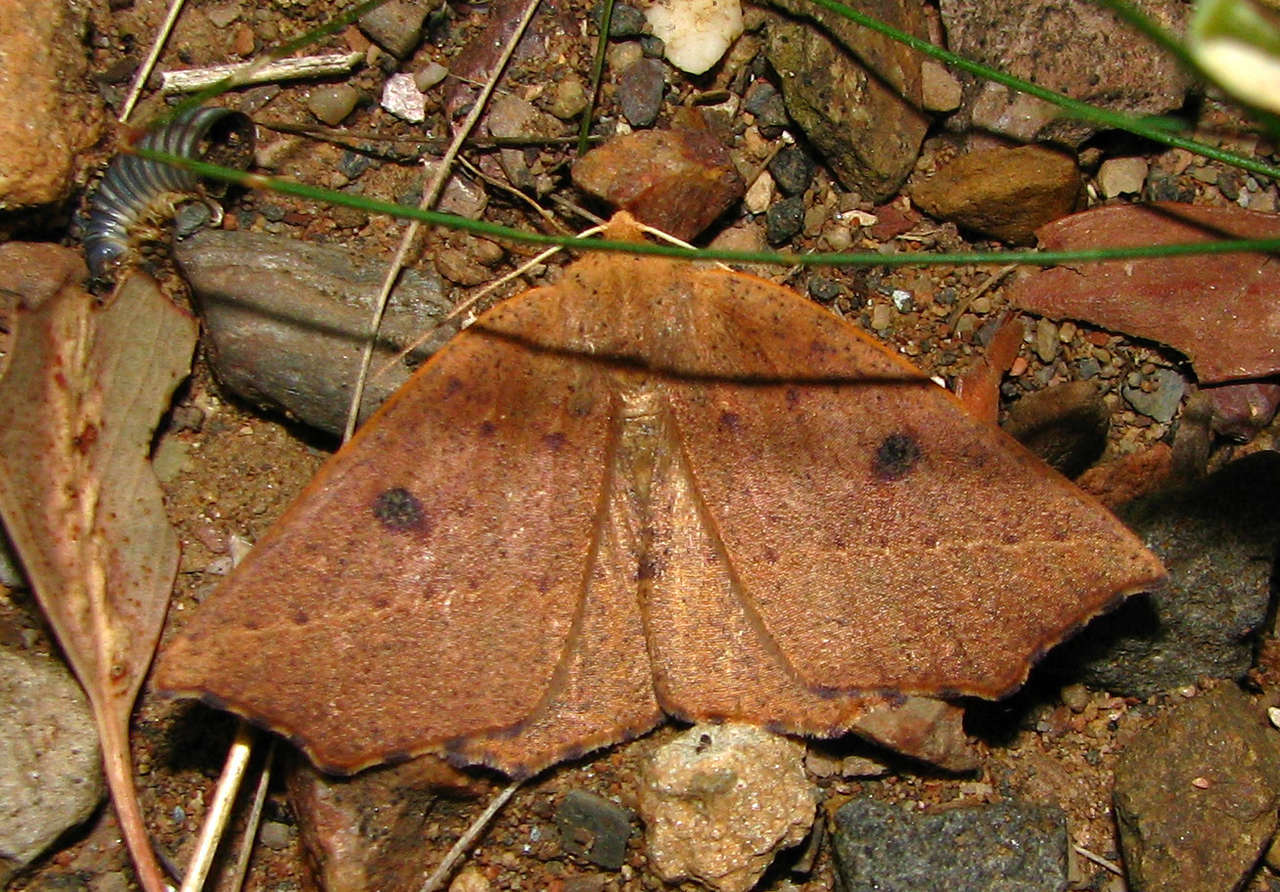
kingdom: Animalia
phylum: Arthropoda
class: Insecta
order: Lepidoptera
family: Geometridae
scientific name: Geometridae
